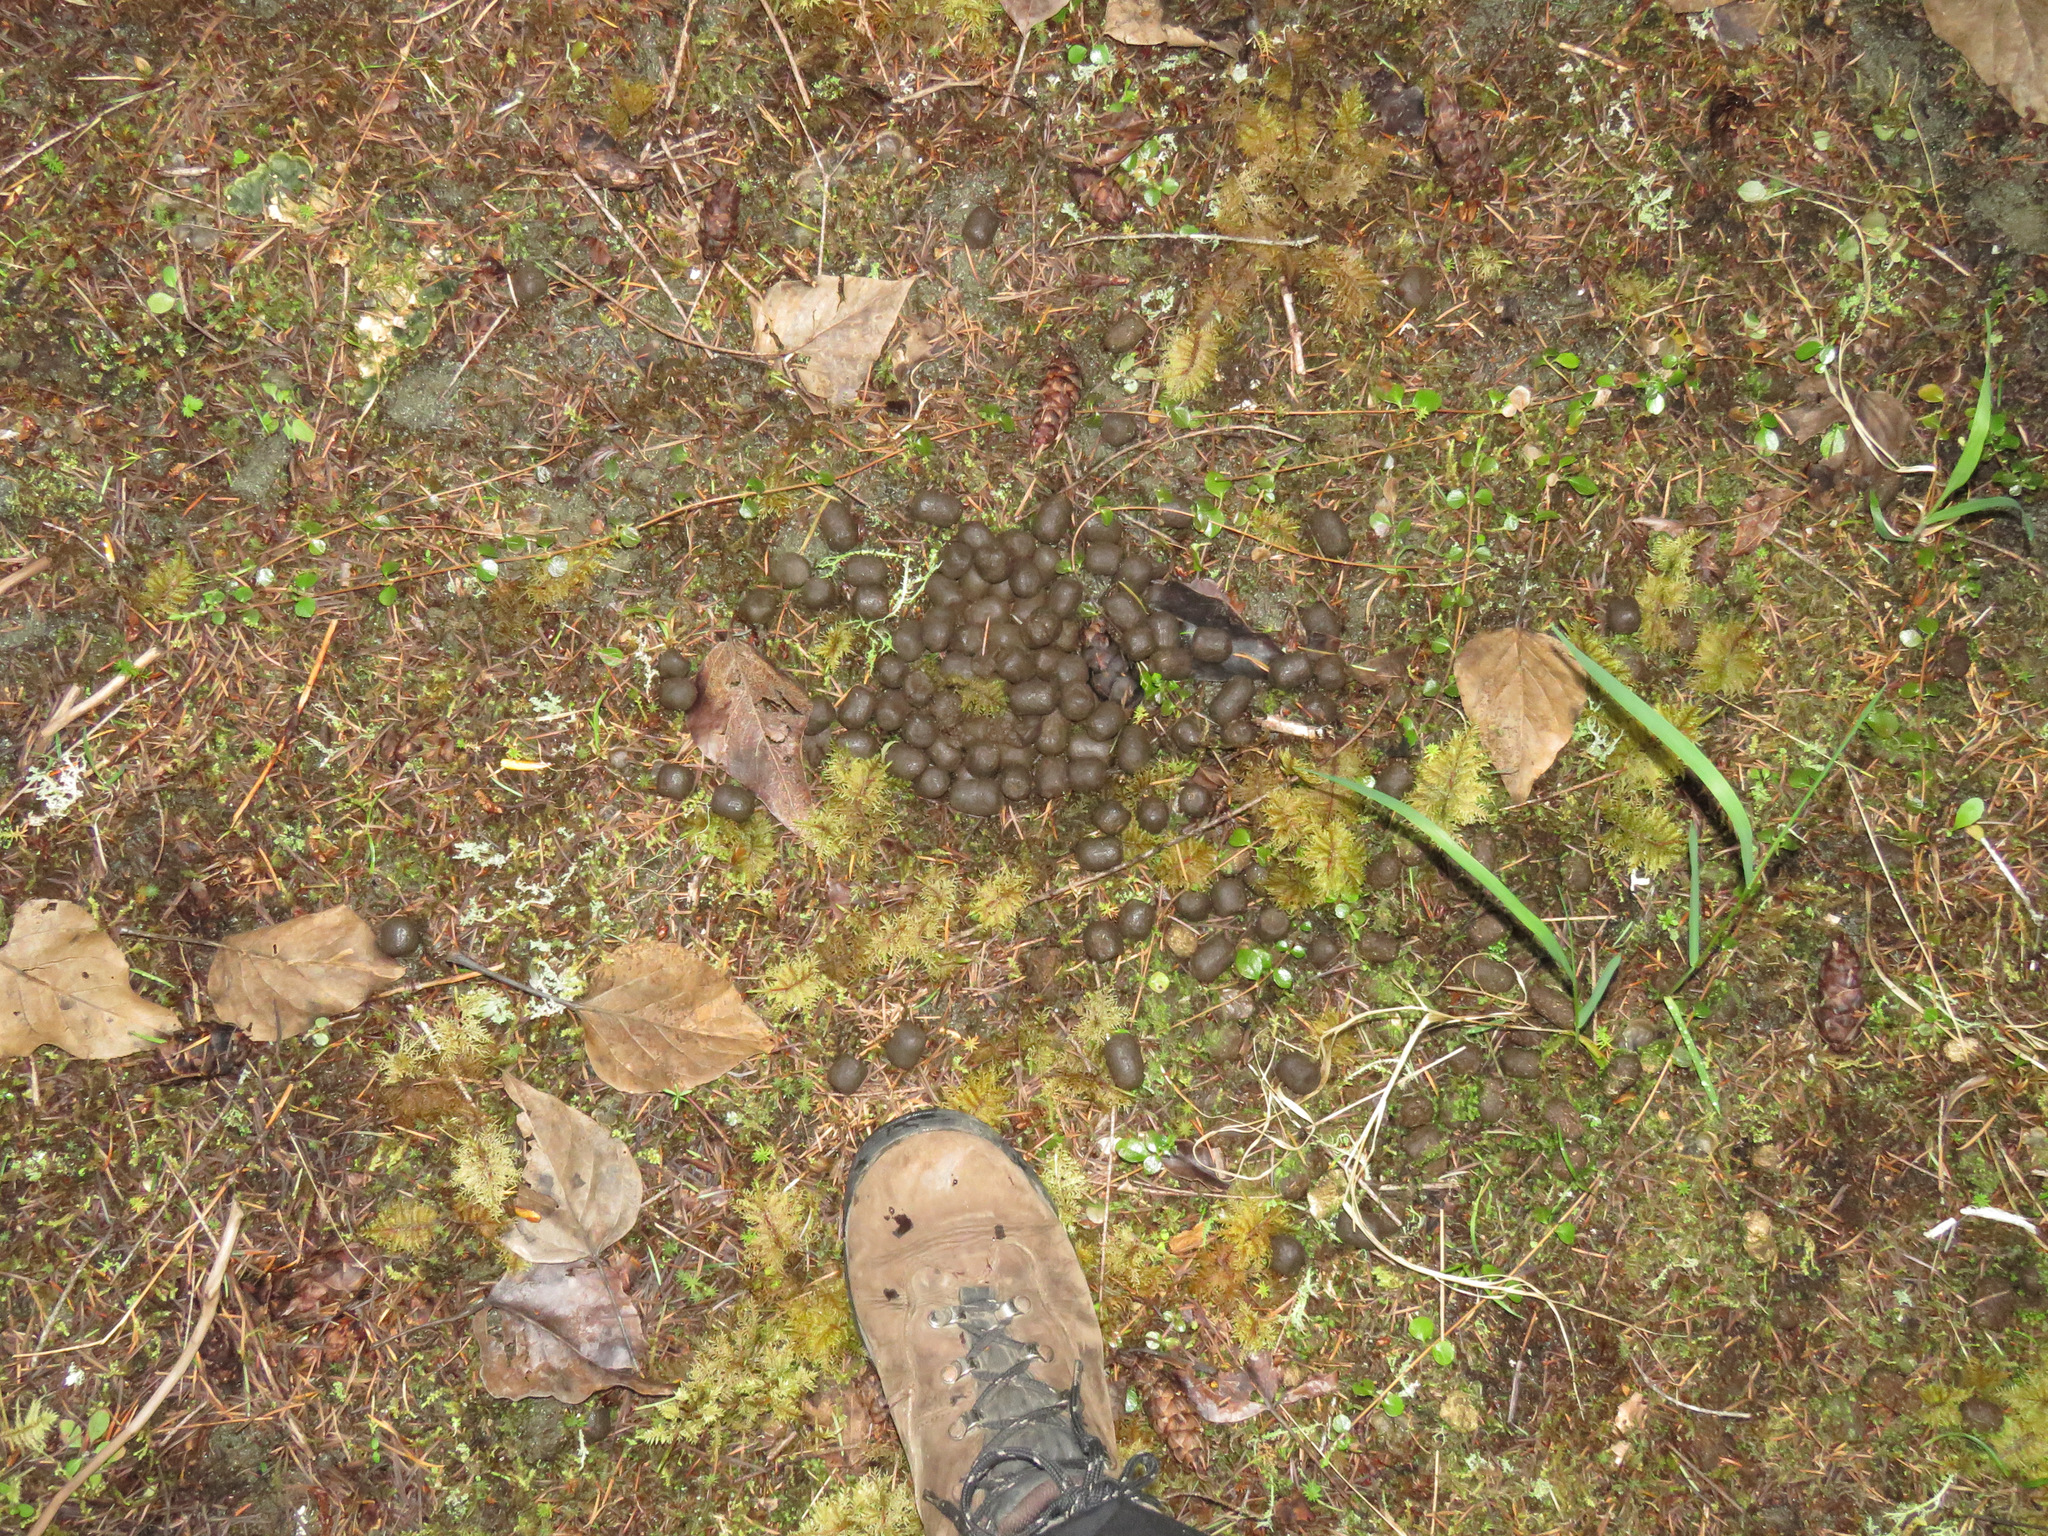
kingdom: Animalia
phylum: Chordata
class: Mammalia
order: Artiodactyla
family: Cervidae
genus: Cervus
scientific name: Cervus elaphus
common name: Red deer
